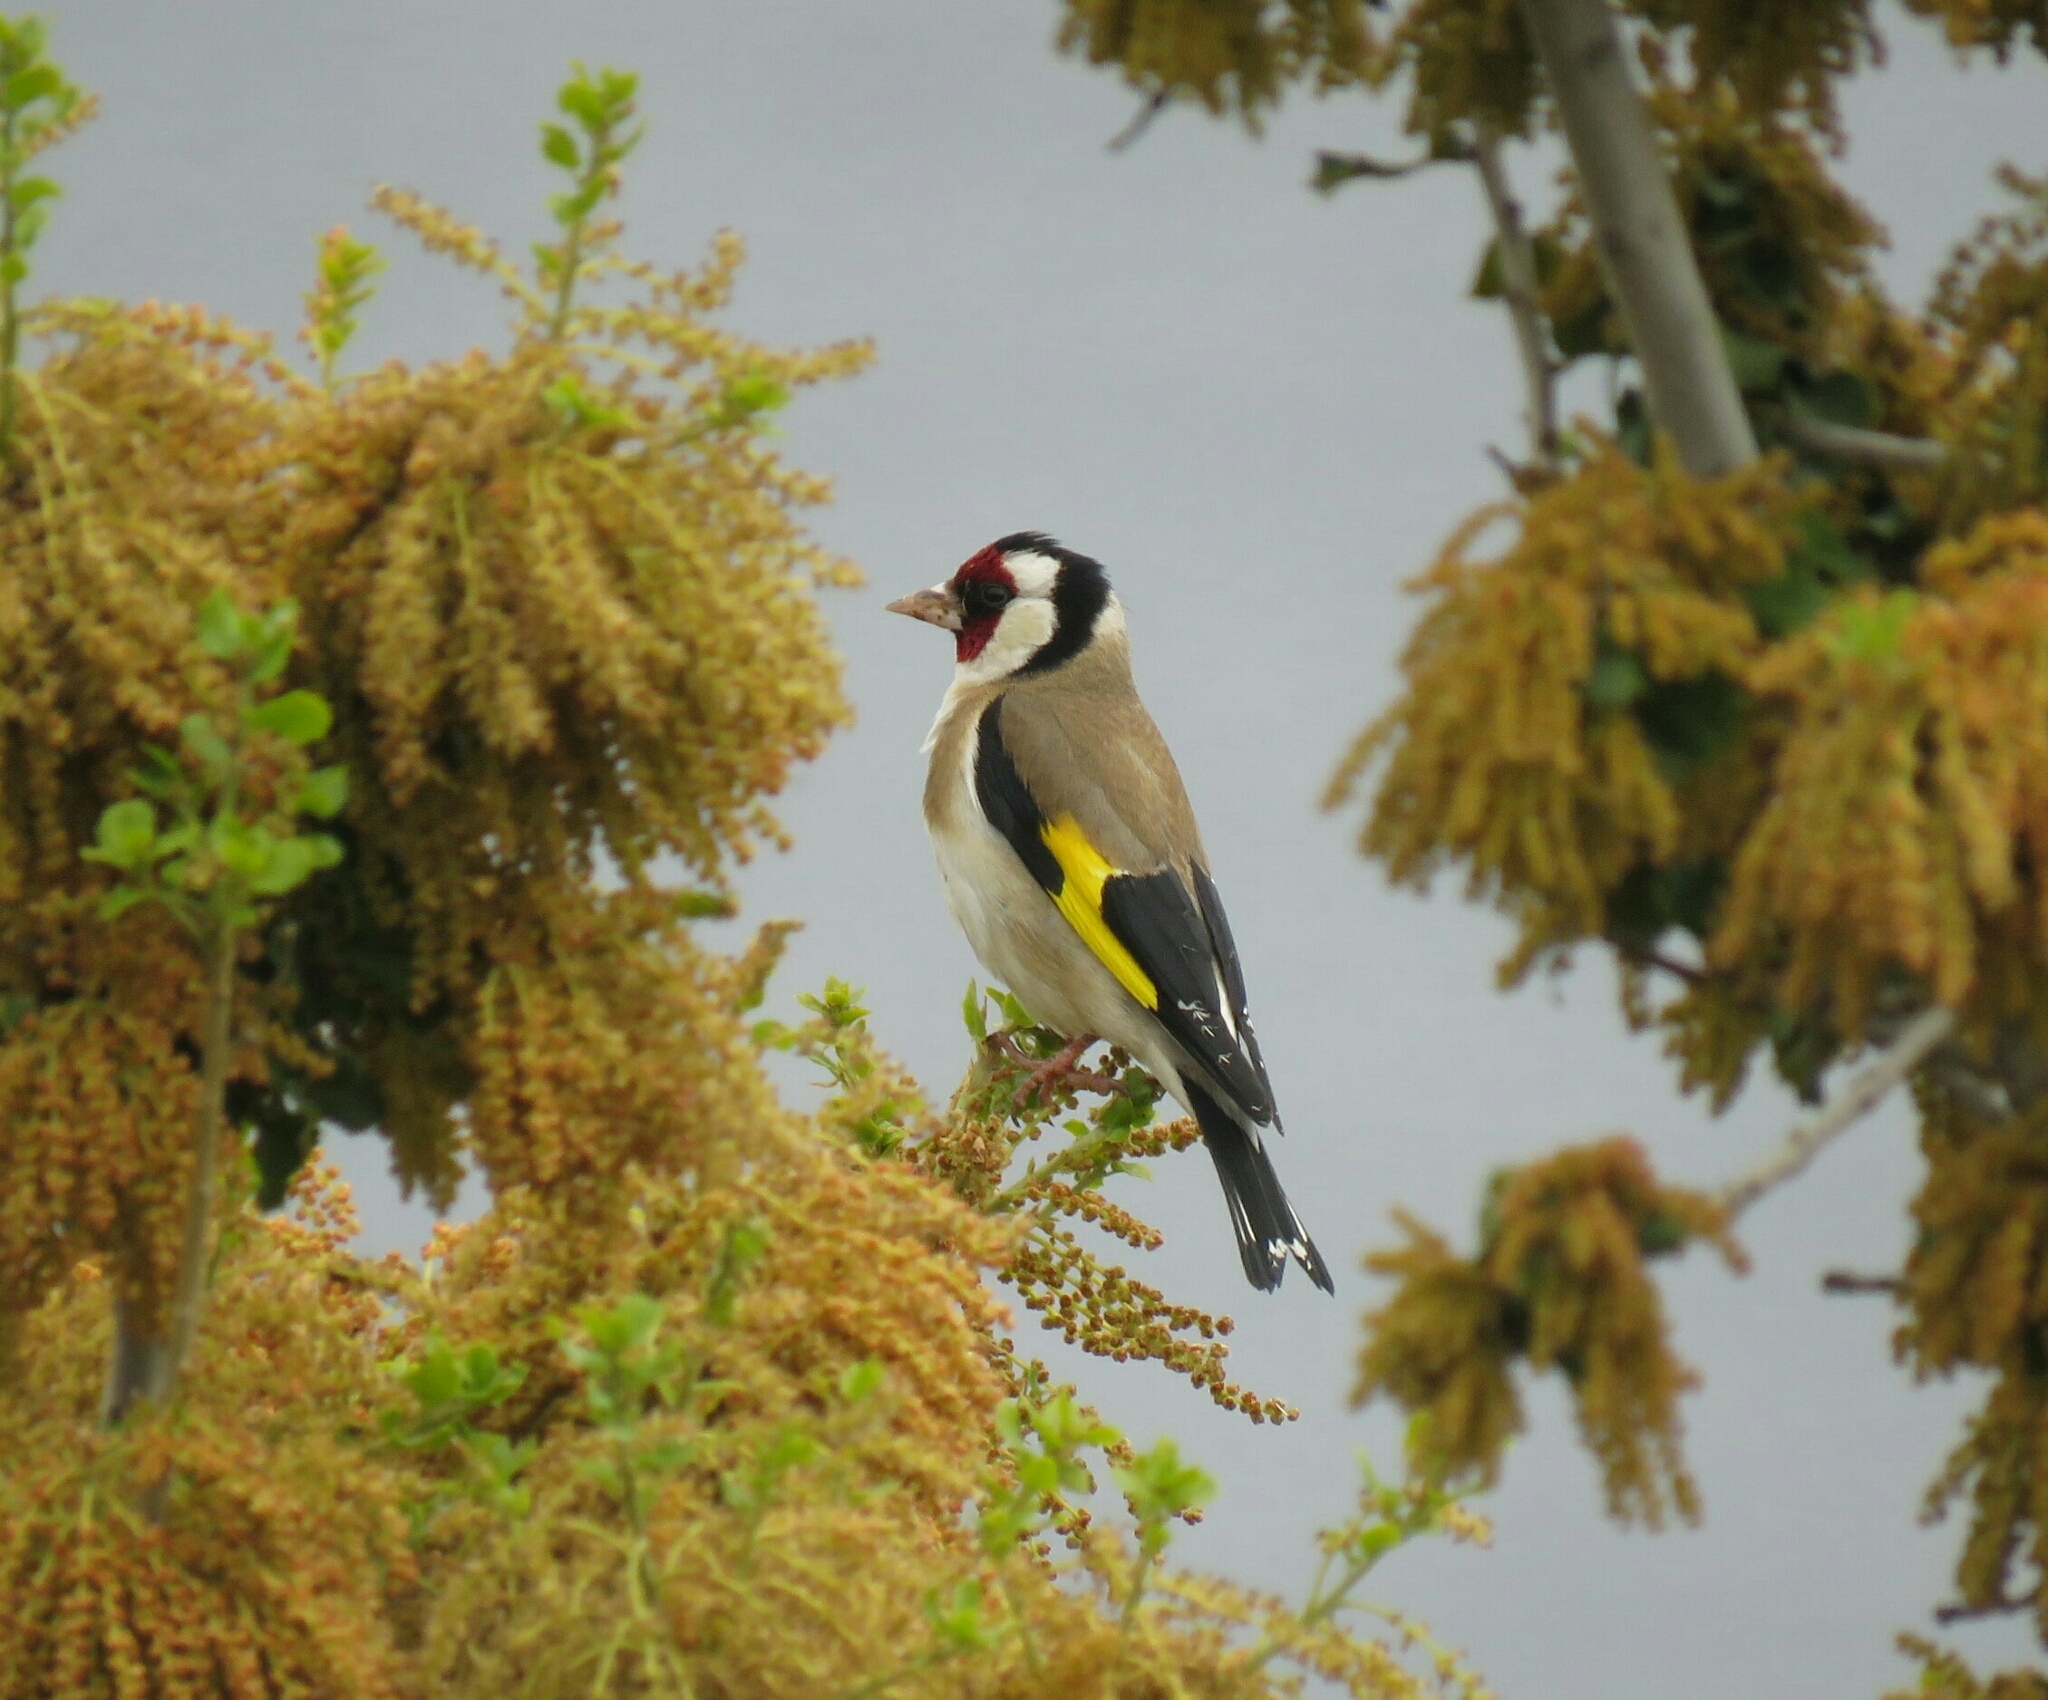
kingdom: Animalia
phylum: Chordata
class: Aves
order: Passeriformes
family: Fringillidae
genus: Carduelis
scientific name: Carduelis carduelis
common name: European goldfinch
